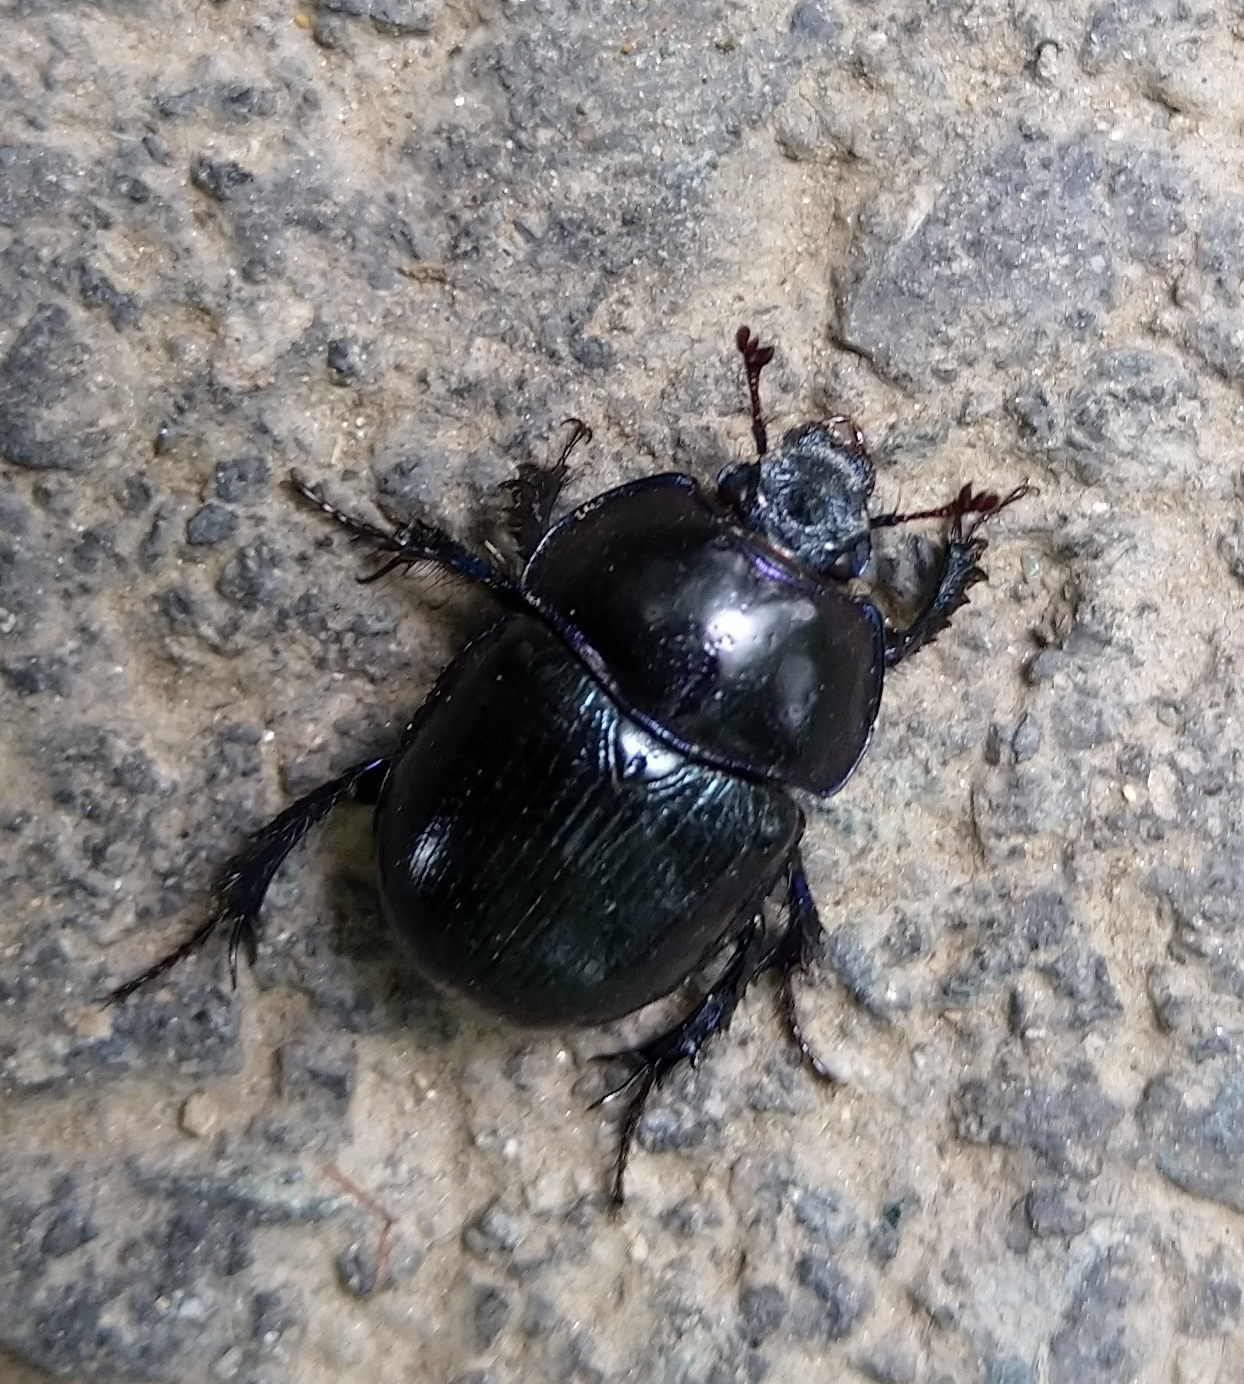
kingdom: Animalia
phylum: Arthropoda
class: Insecta
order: Coleoptera
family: Geotrupidae
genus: Anoplotrupes
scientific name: Anoplotrupes stercorosus
